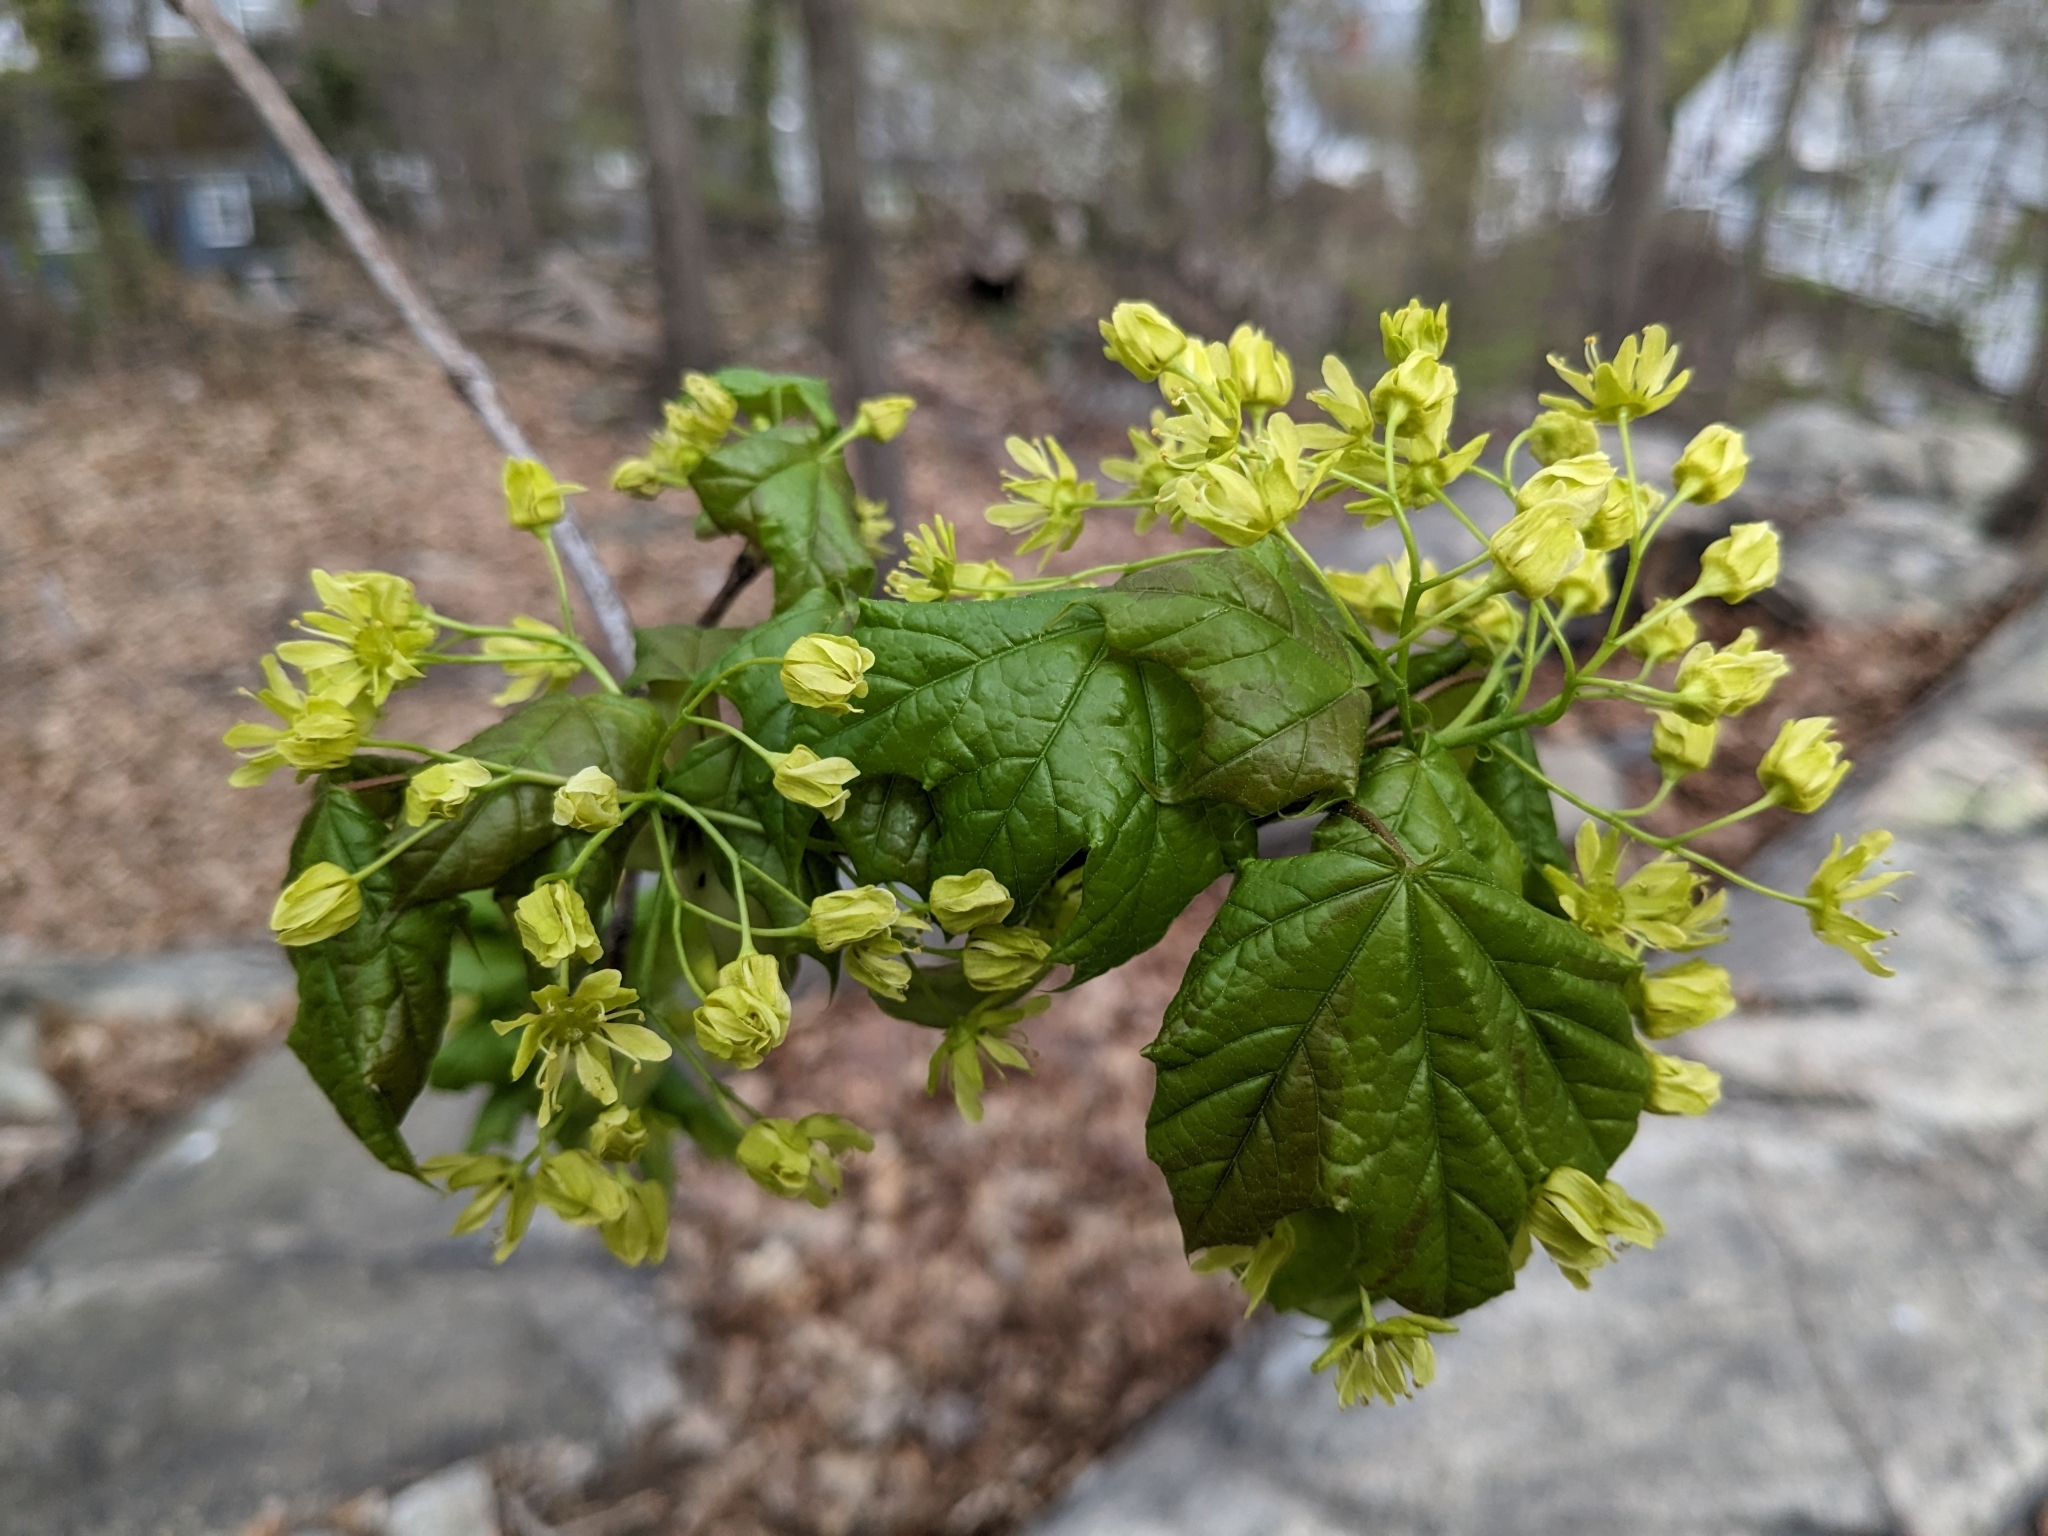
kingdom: Plantae
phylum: Tracheophyta
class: Magnoliopsida
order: Sapindales
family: Sapindaceae
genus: Acer
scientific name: Acer platanoides
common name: Norway maple
